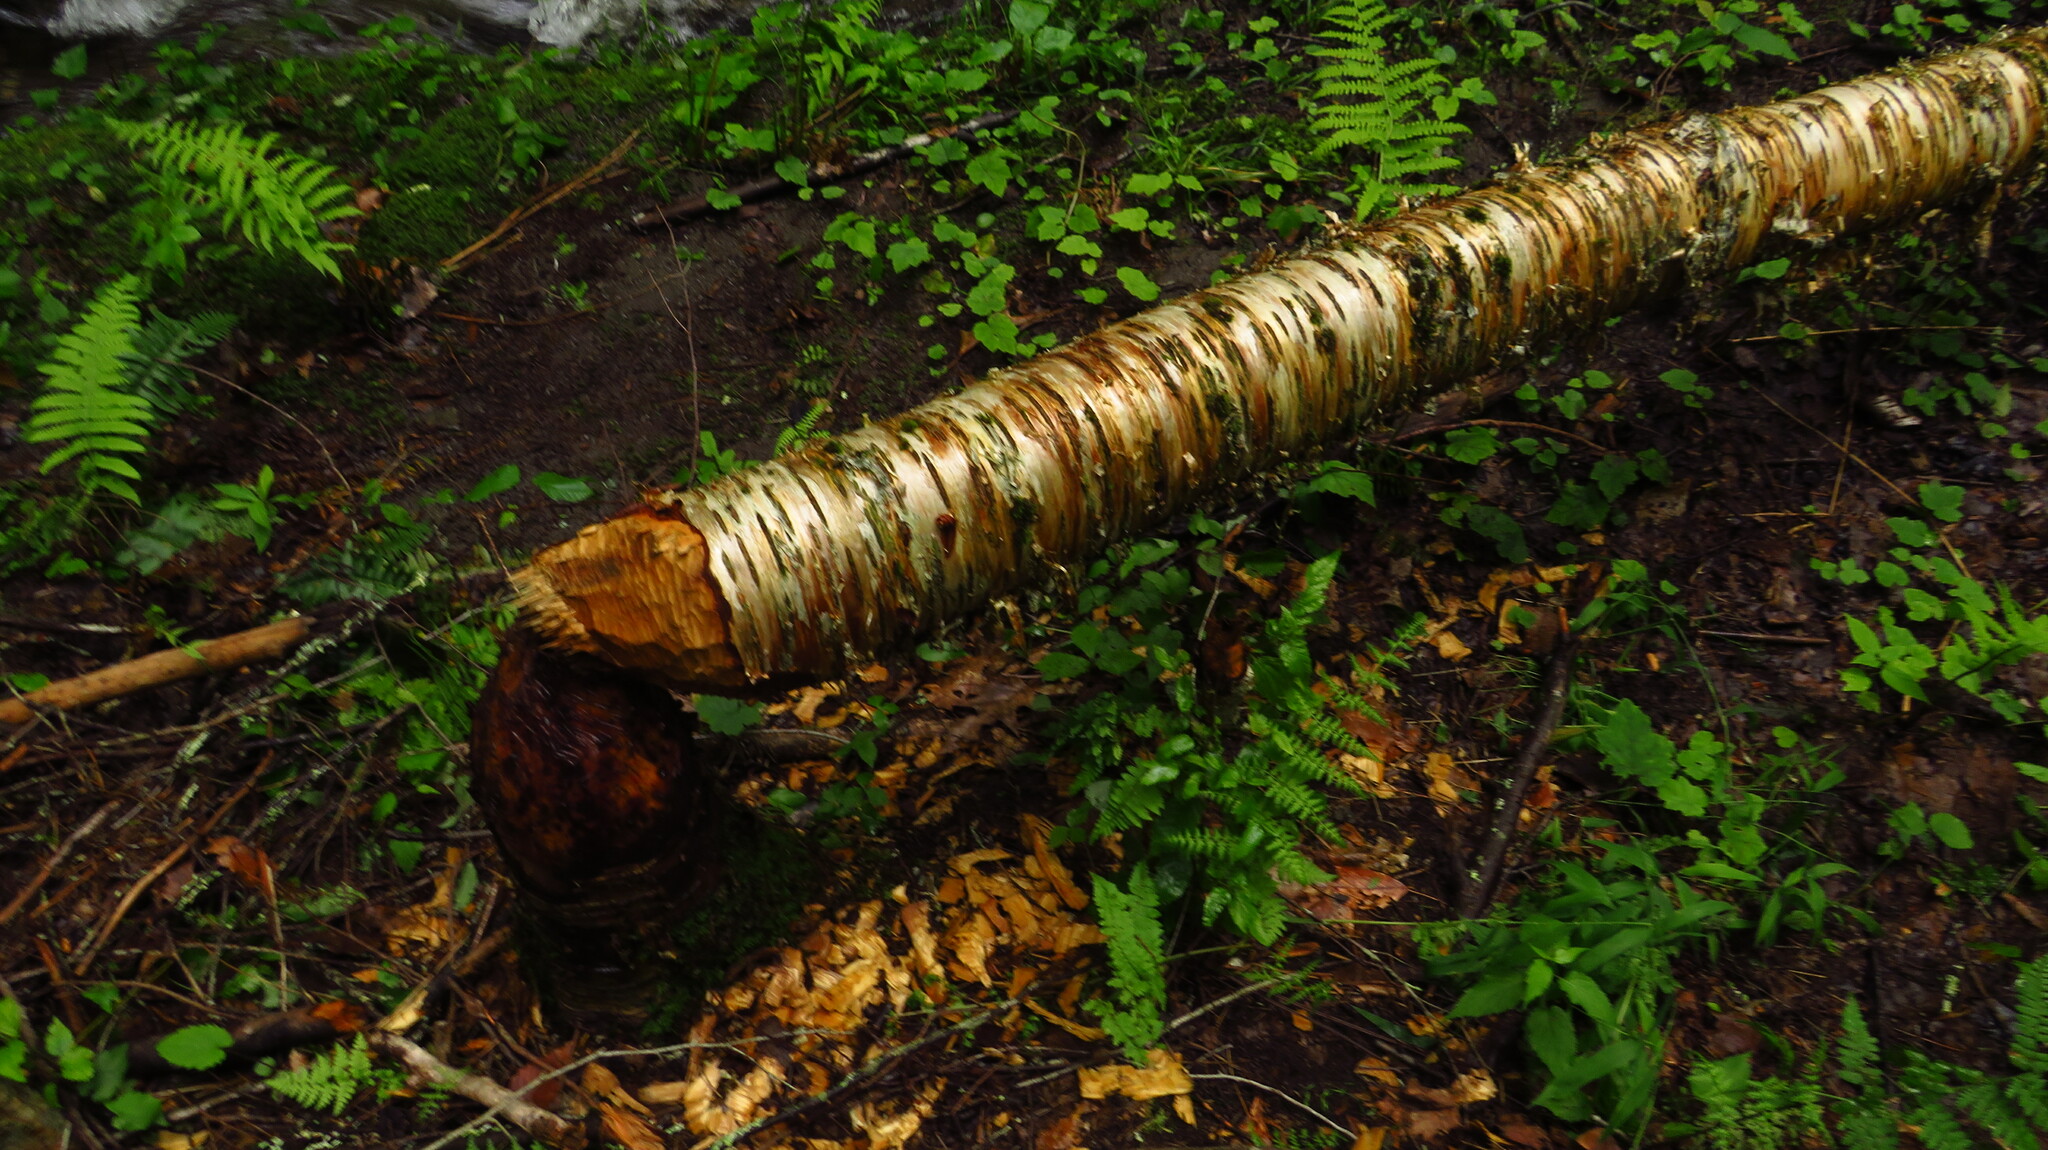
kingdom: Animalia
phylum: Chordata
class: Mammalia
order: Rodentia
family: Castoridae
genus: Castor
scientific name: Castor canadensis
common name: American beaver
